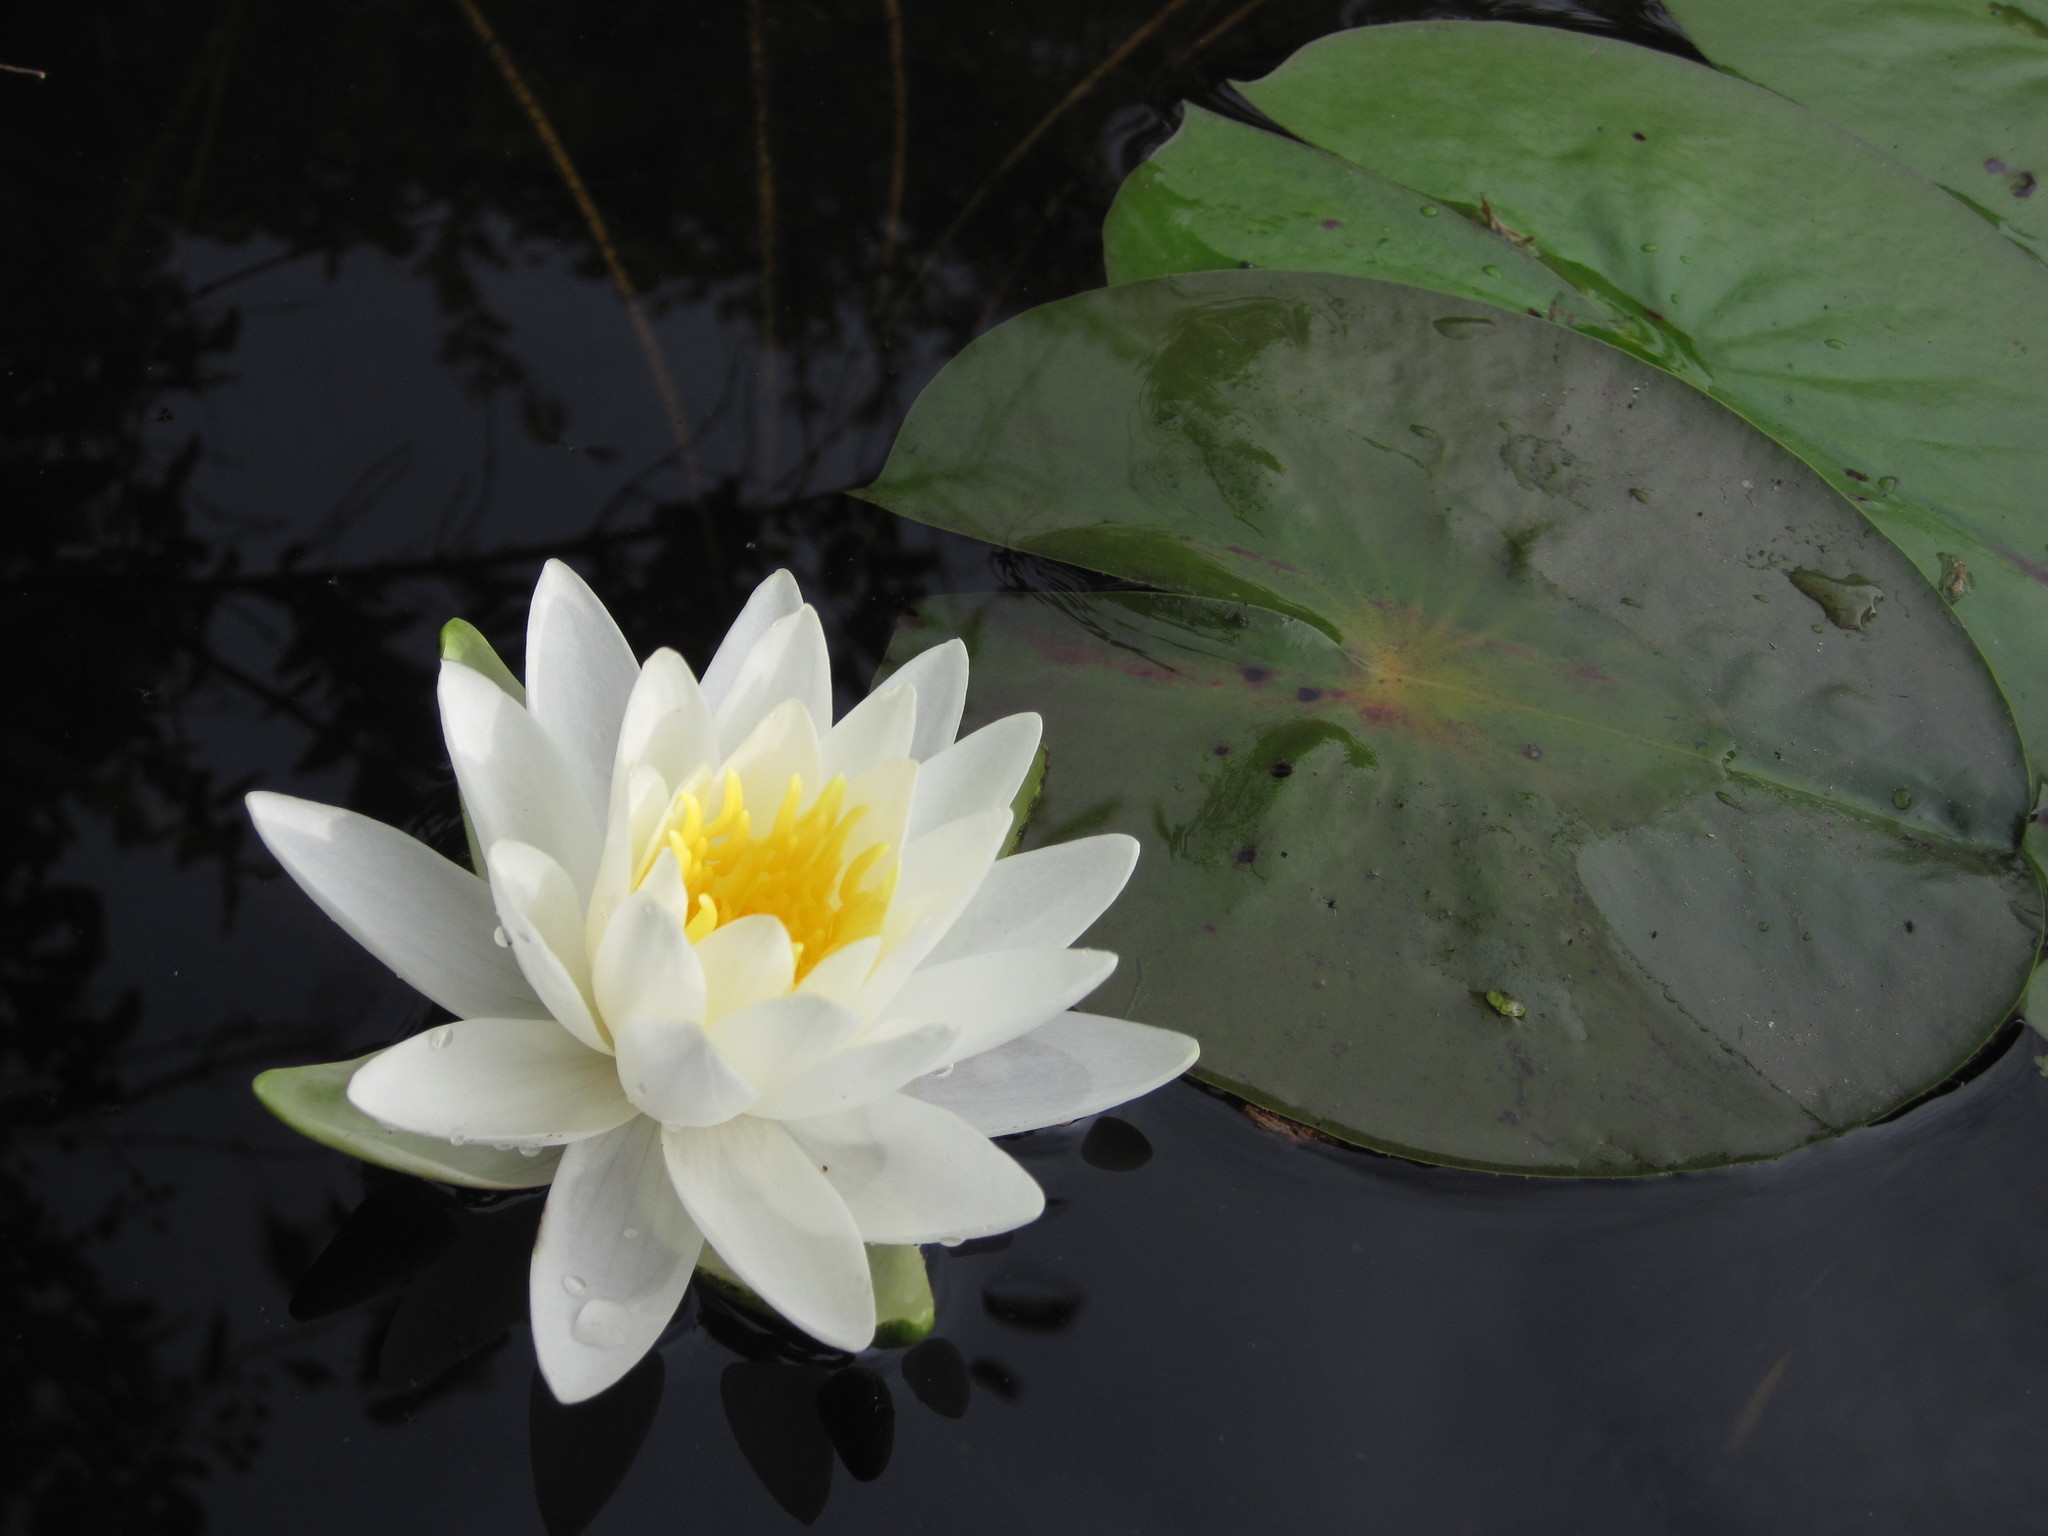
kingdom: Plantae
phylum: Tracheophyta
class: Magnoliopsida
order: Nymphaeales
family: Nymphaeaceae
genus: Nymphaea
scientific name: Nymphaea odorata
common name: Fragrant water-lily
